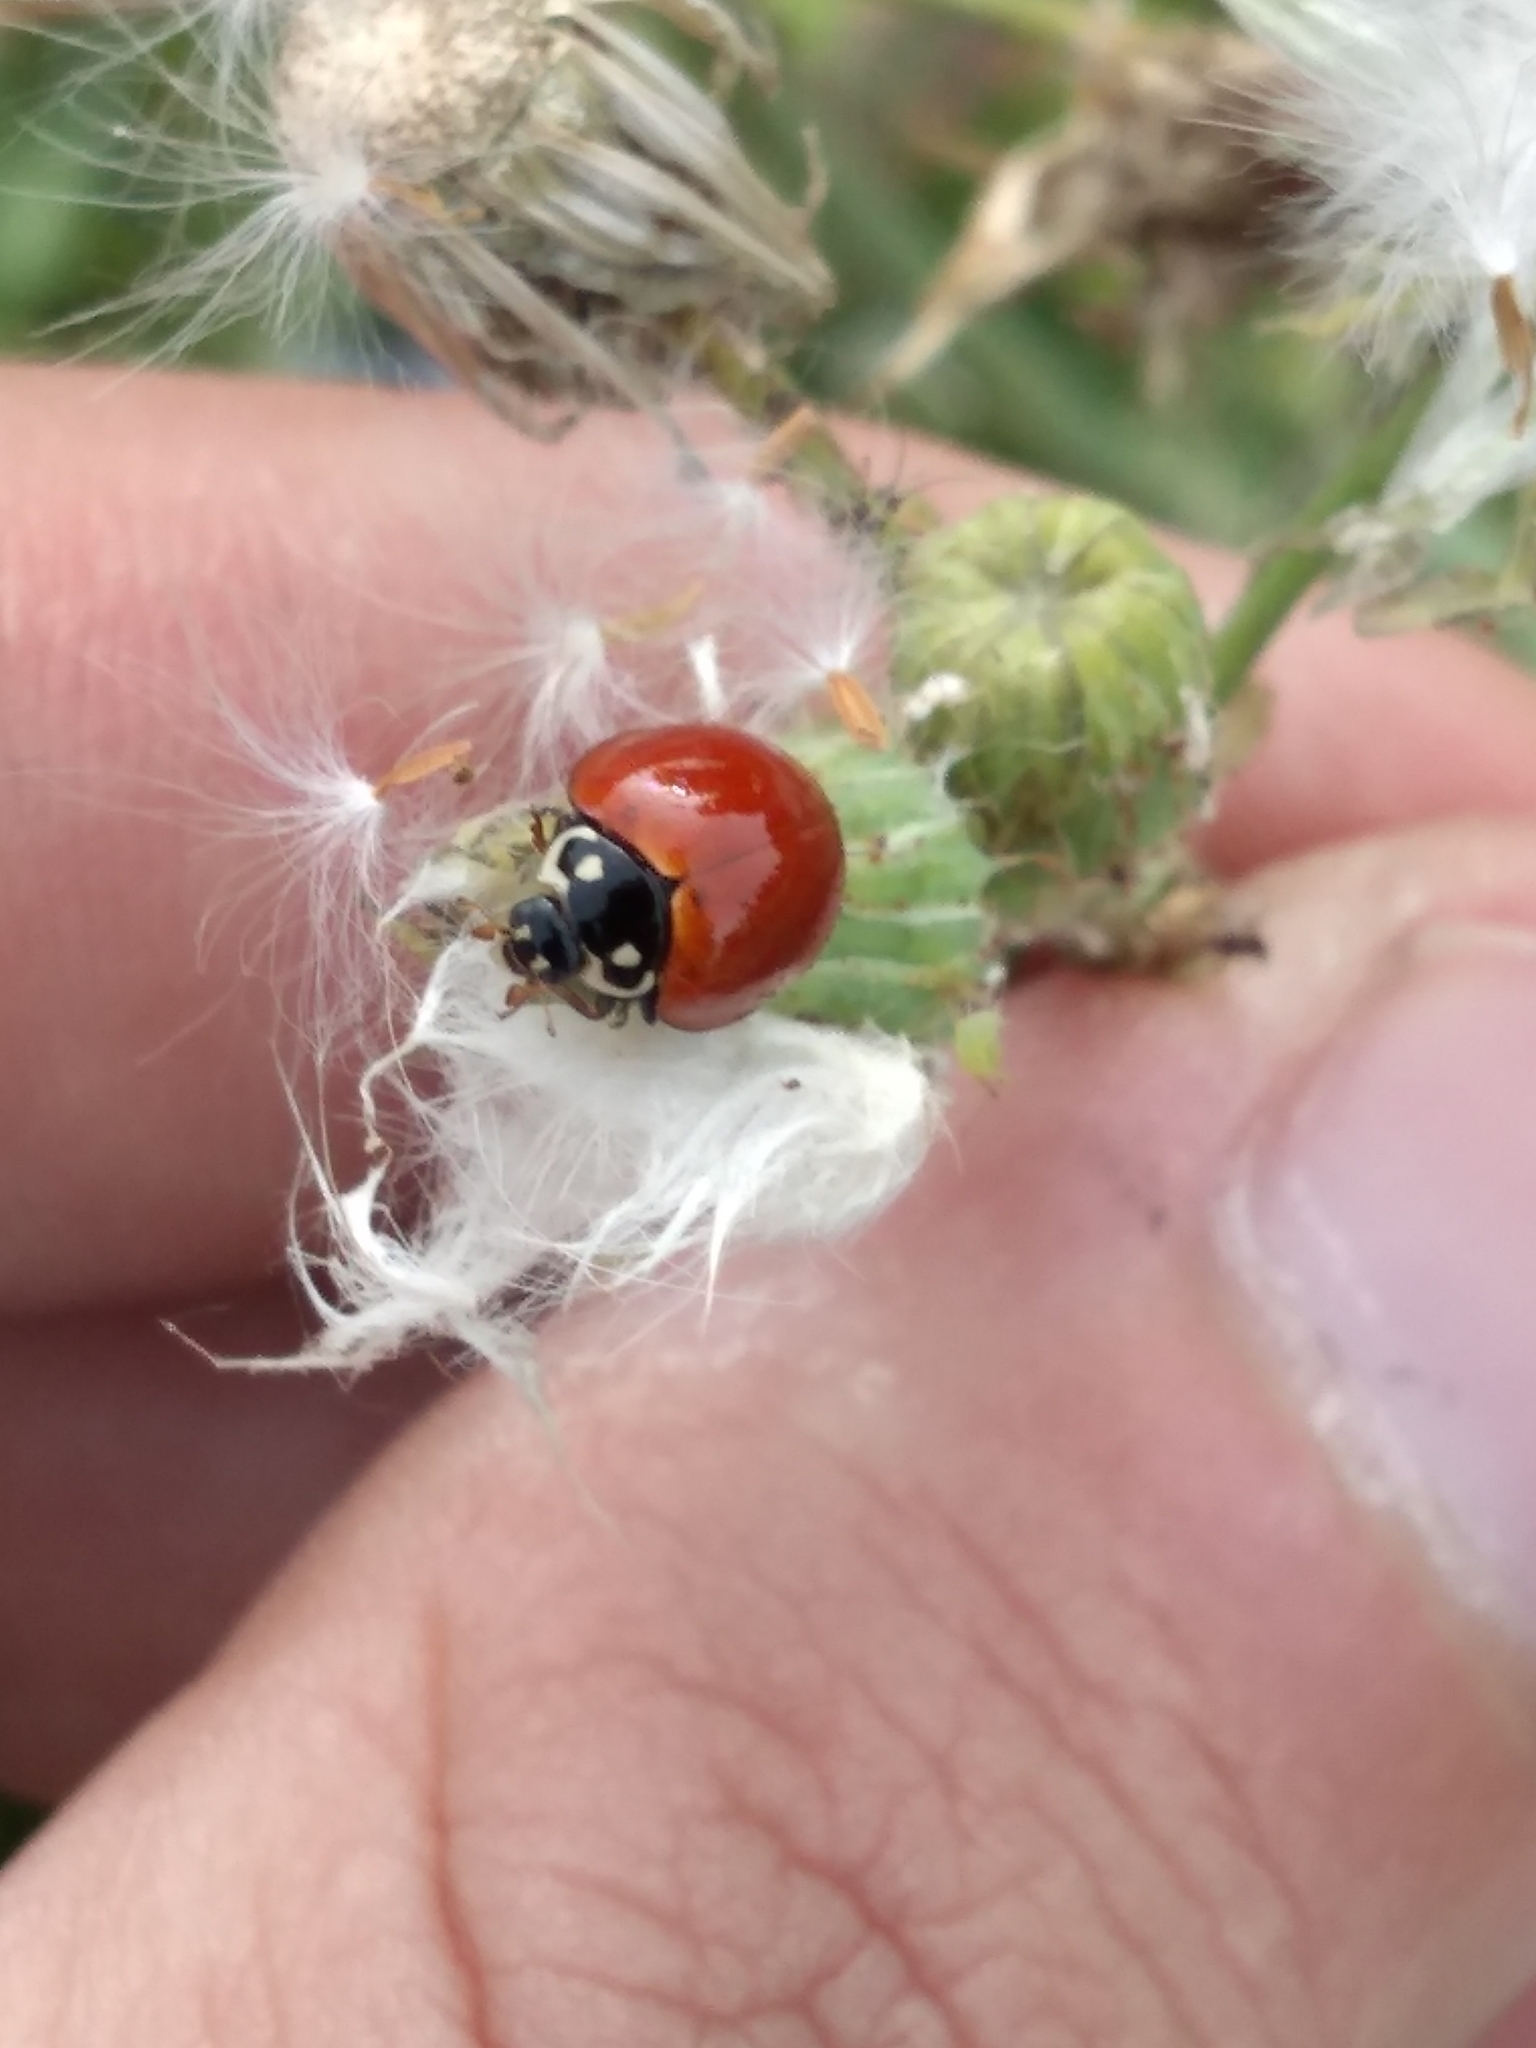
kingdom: Animalia
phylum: Arthropoda
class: Insecta
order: Coleoptera
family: Coccinellidae
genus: Cycloneda
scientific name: Cycloneda sanguinea
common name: Ladybird beetle
